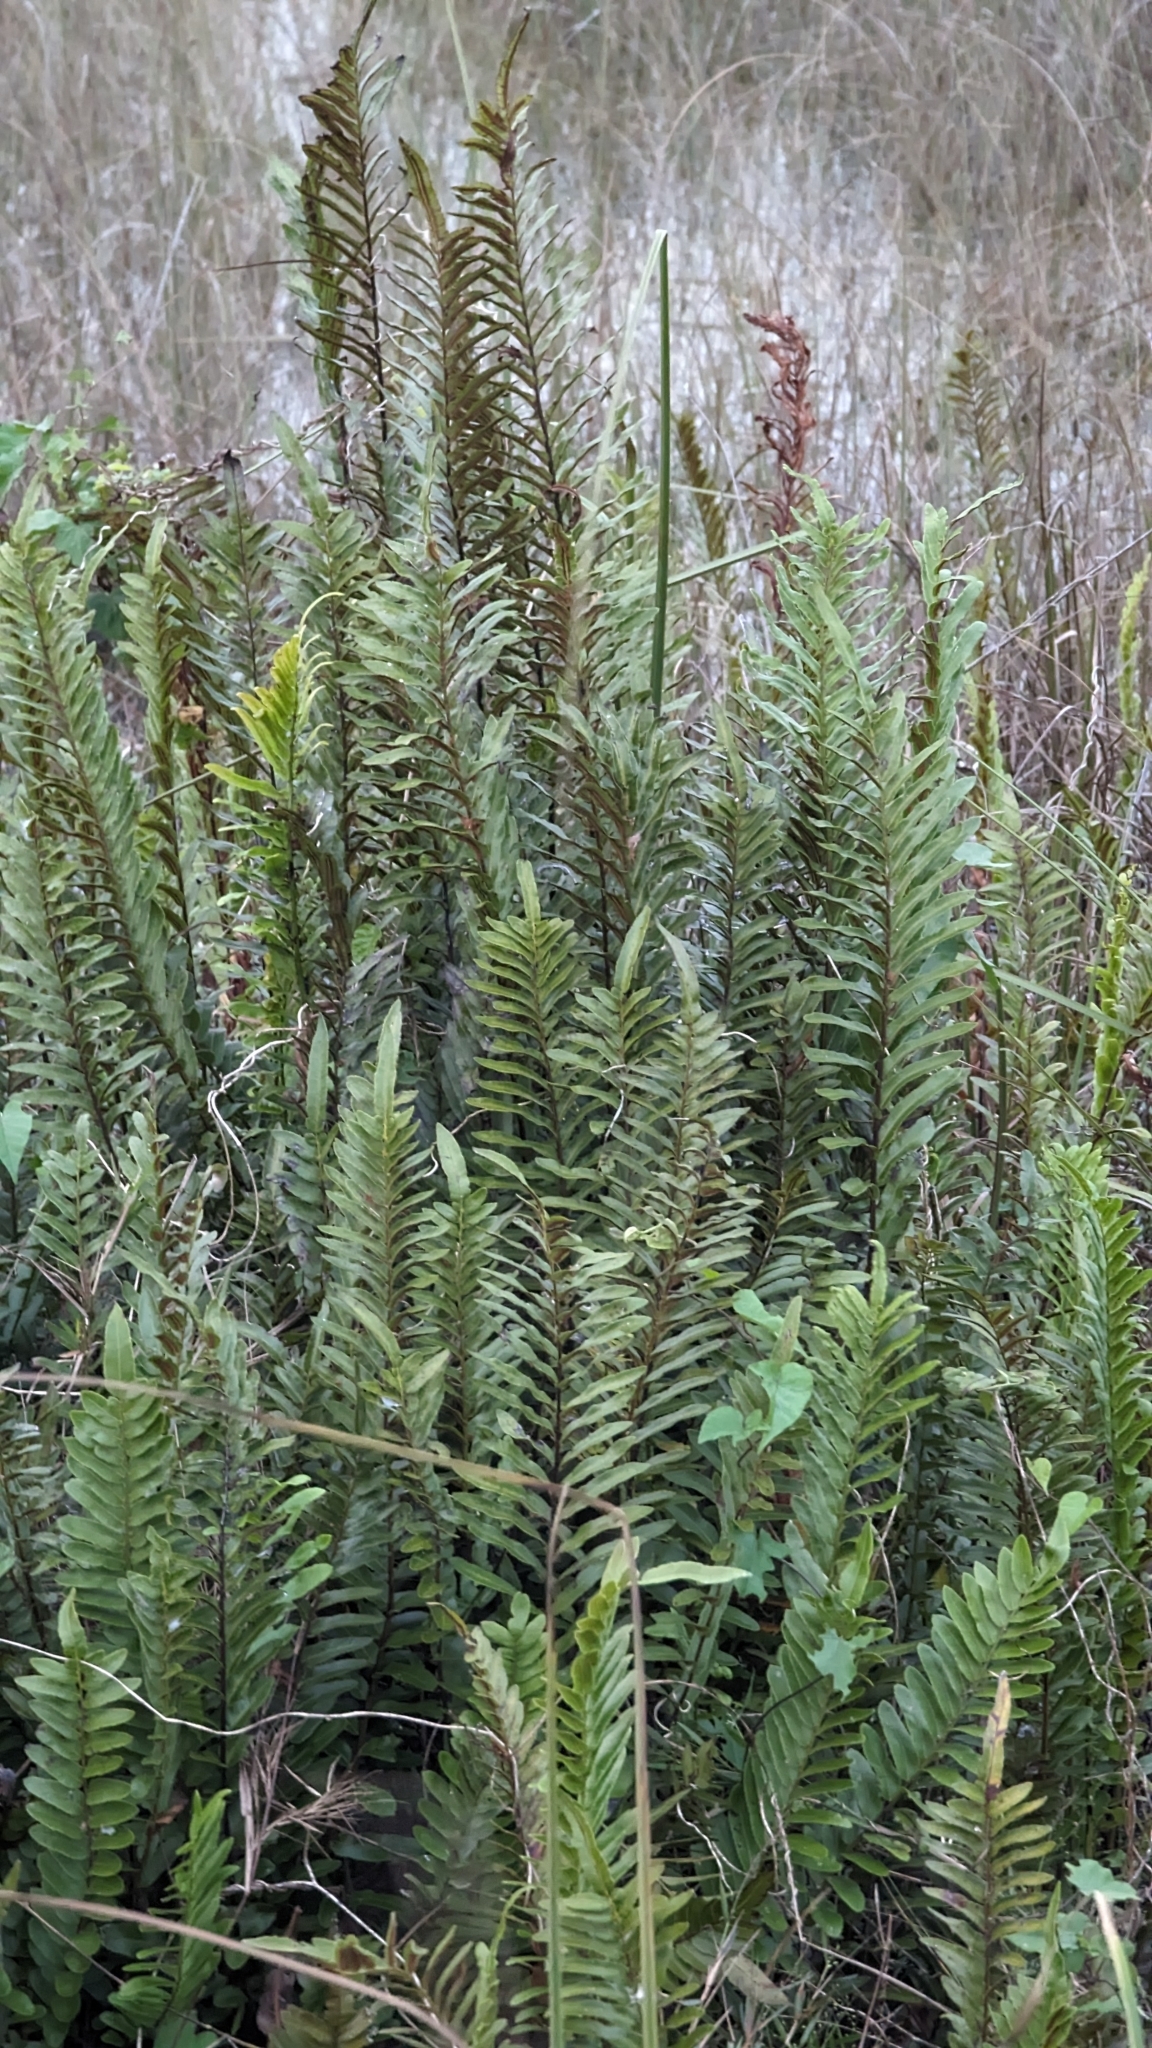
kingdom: Plantae
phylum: Tracheophyta
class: Polypodiopsida
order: Polypodiales
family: Blechnaceae
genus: Telmatoblechnum
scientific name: Telmatoblechnum serrulatum
